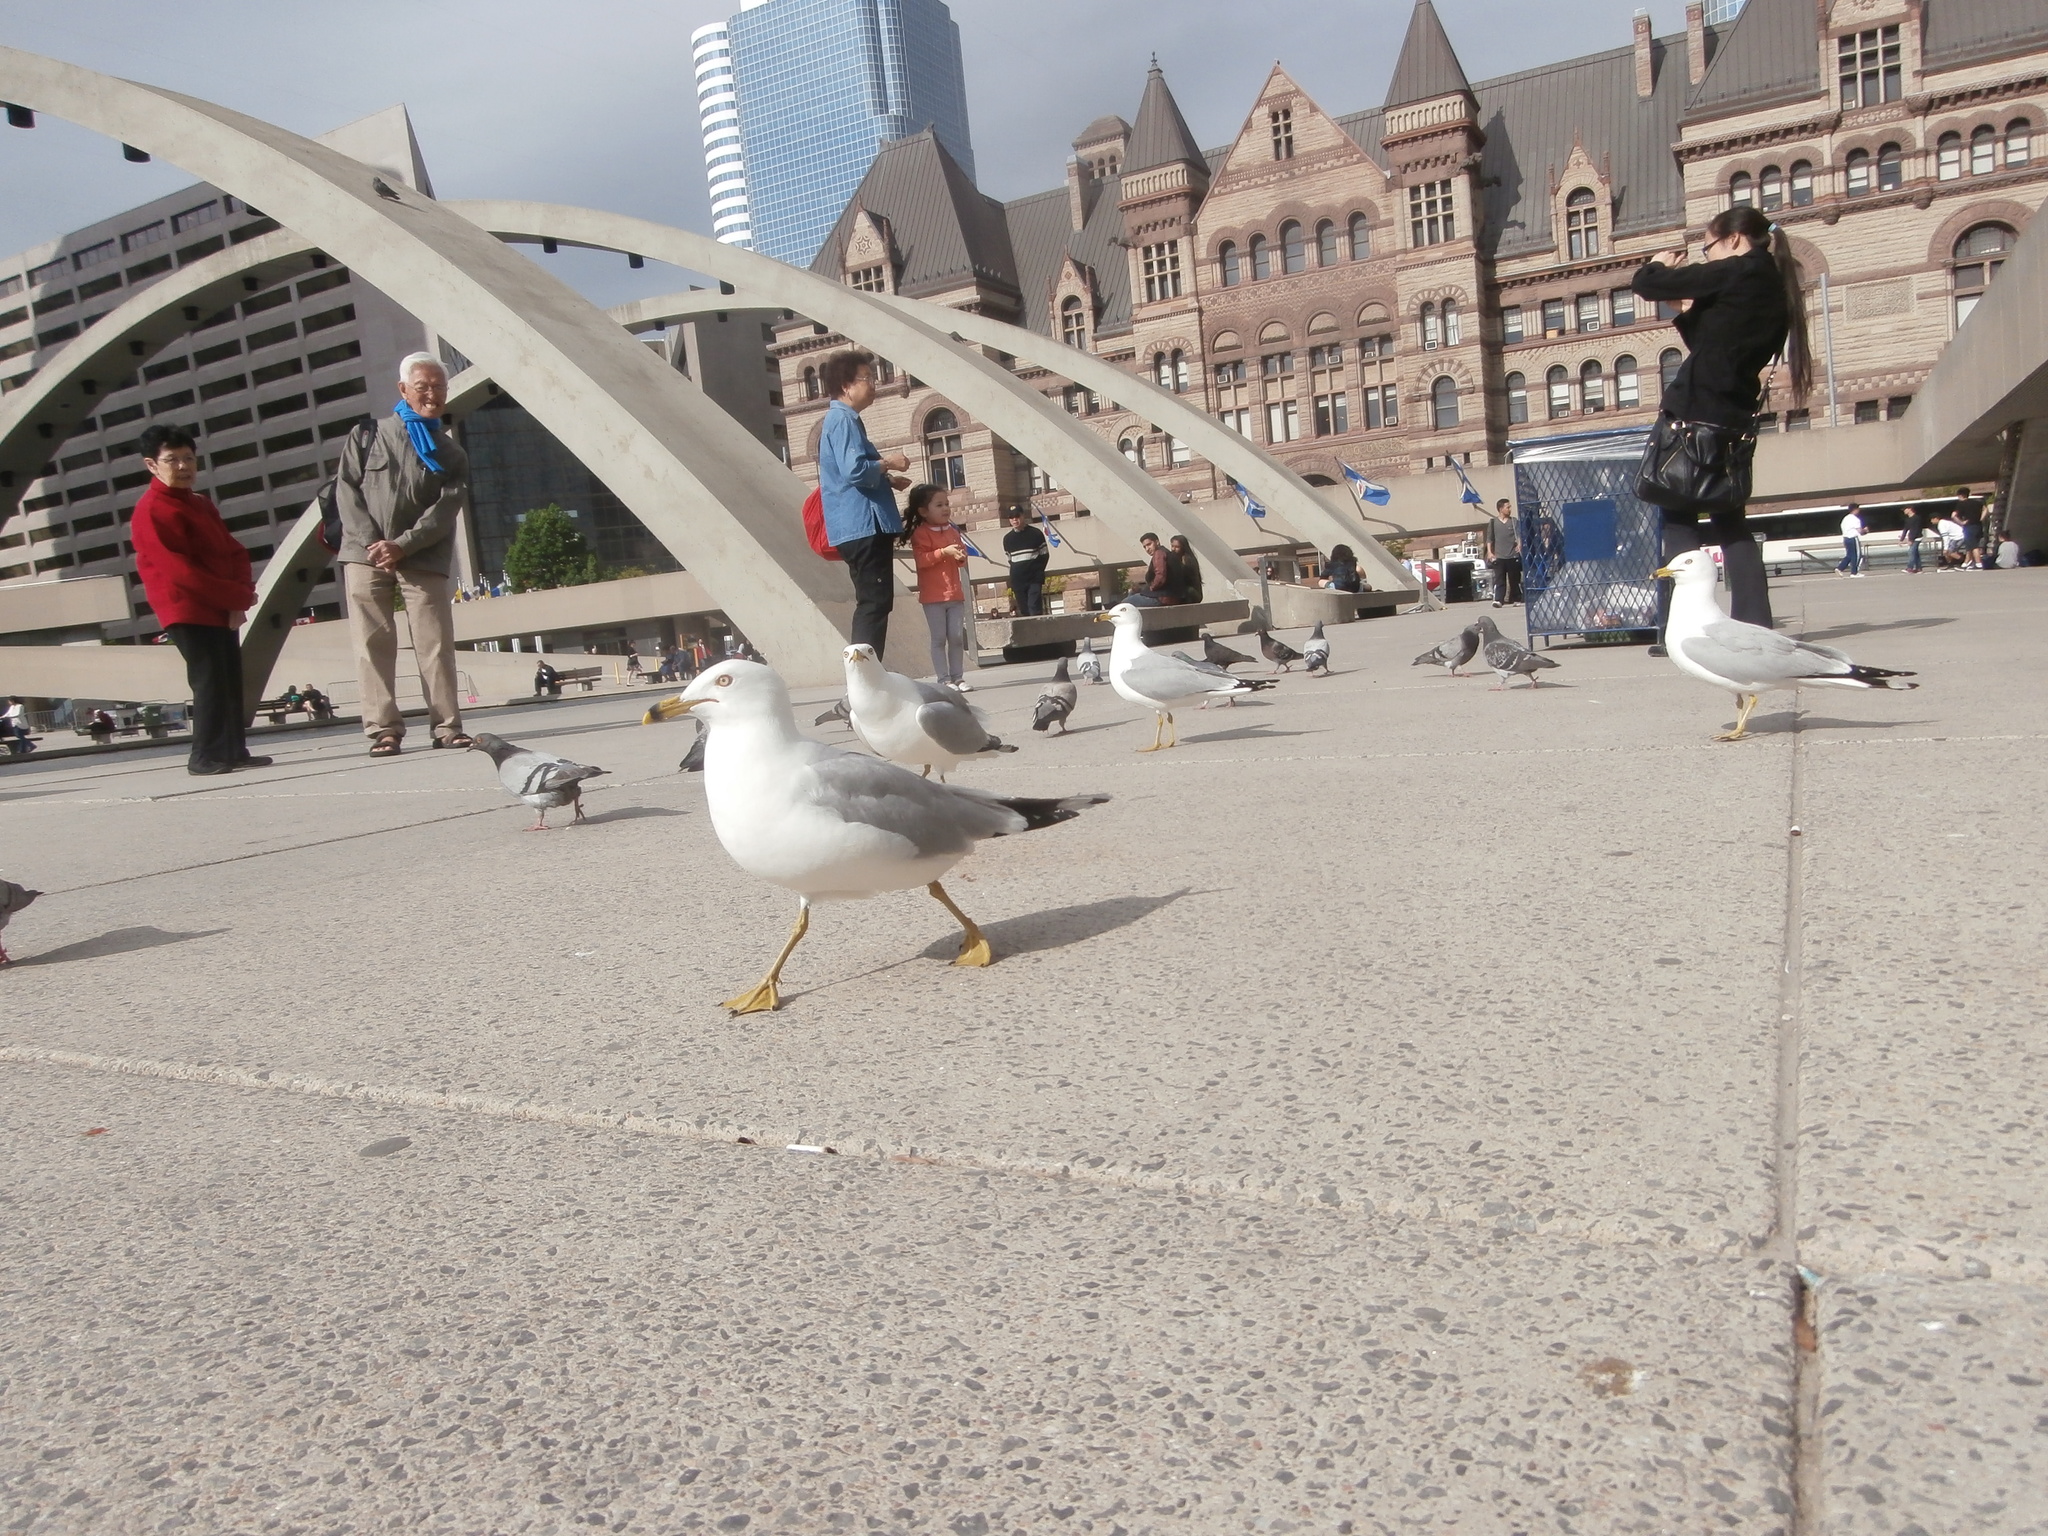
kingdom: Animalia
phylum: Chordata
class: Aves
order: Charadriiformes
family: Laridae
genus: Larus
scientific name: Larus delawarensis
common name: Ring-billed gull
